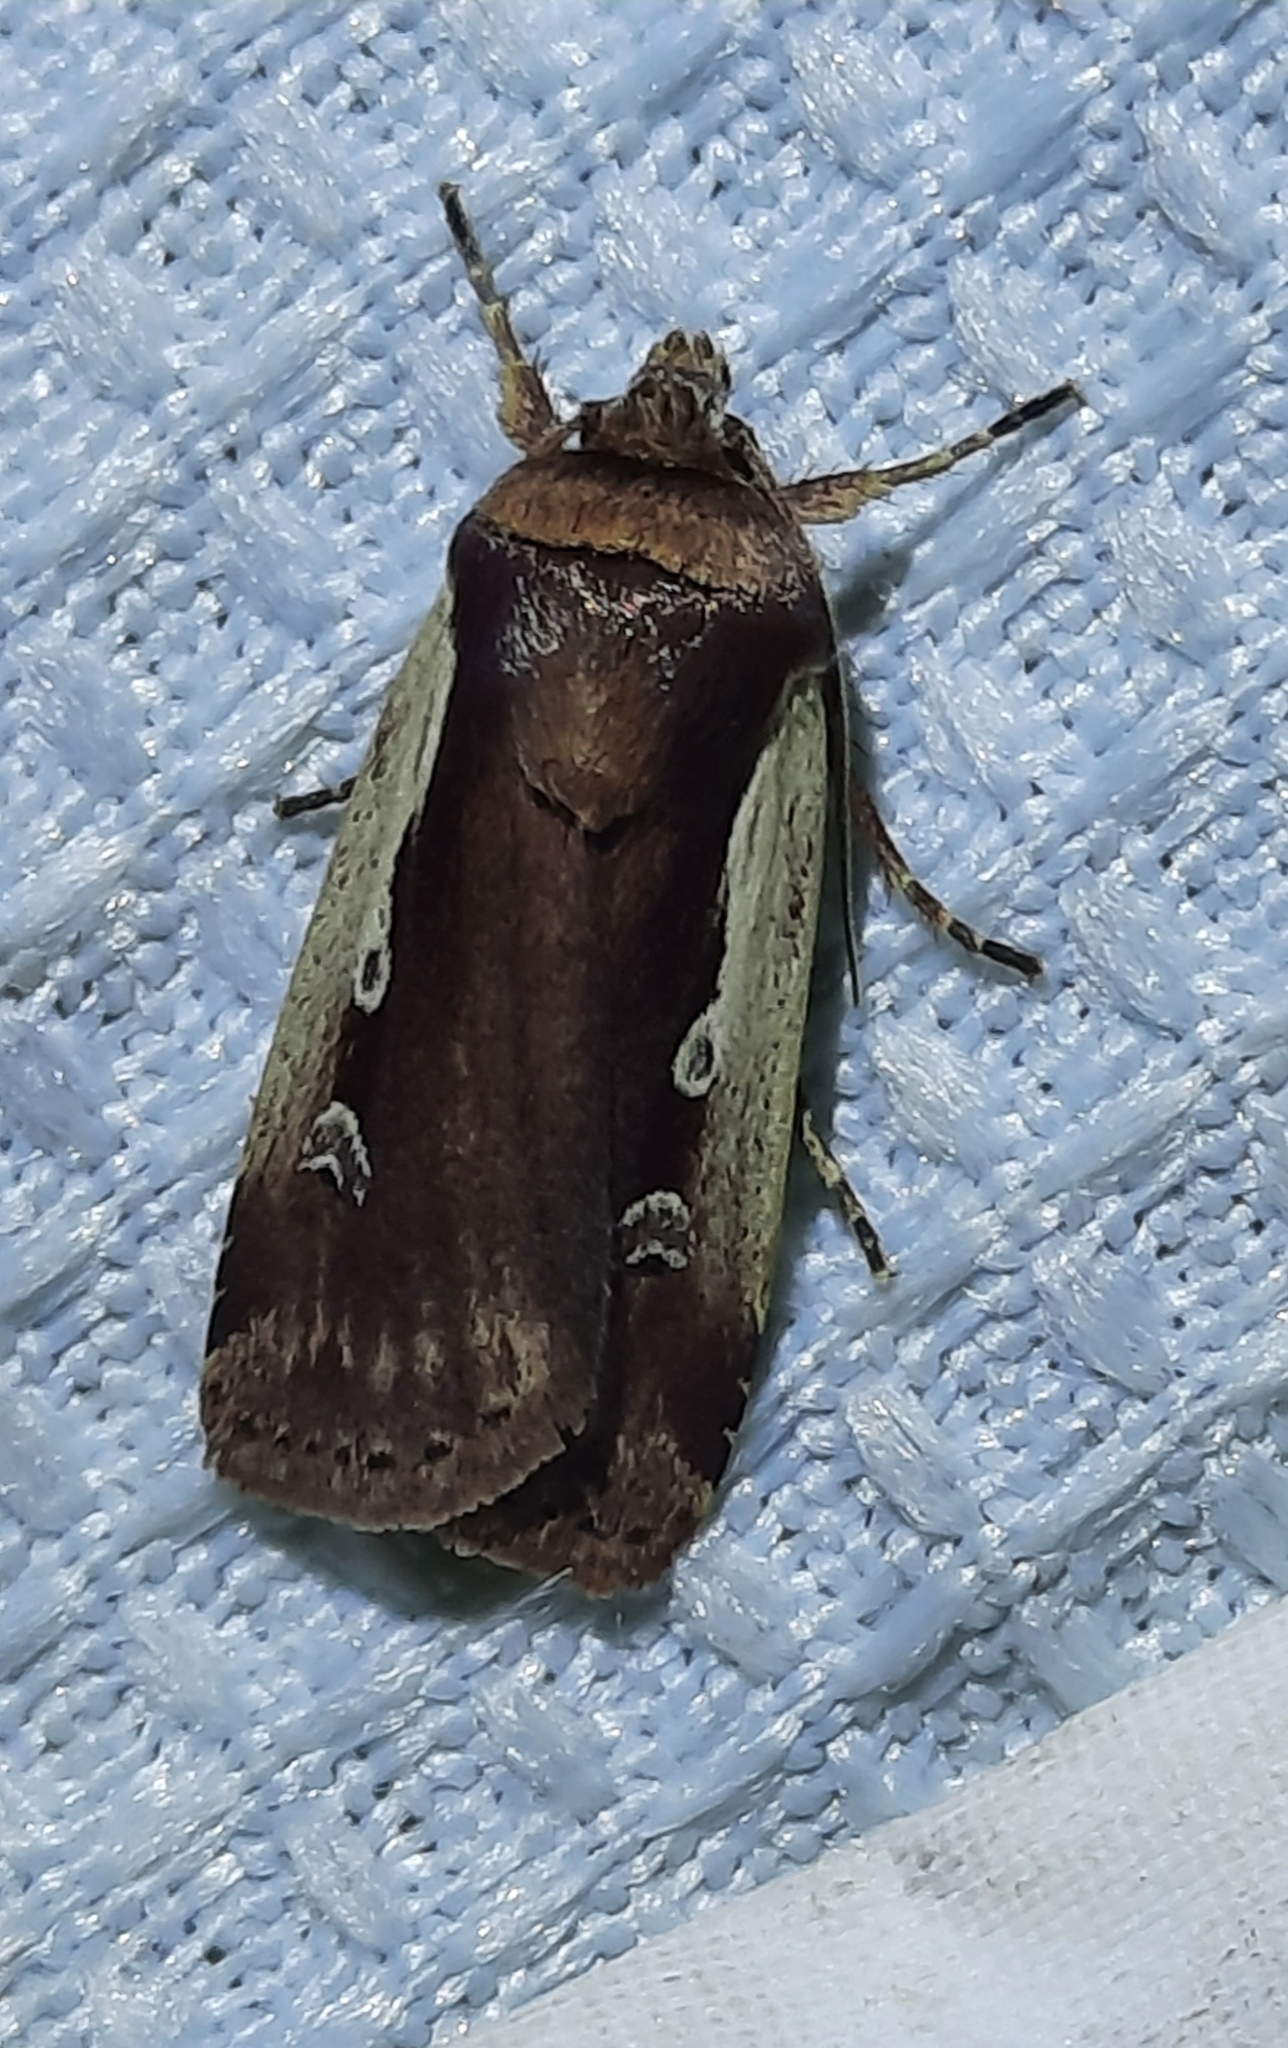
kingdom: Animalia
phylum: Arthropoda
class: Insecta
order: Lepidoptera
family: Noctuidae
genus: Ochropleura
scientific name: Ochropleura plecta
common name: Flame shoulder
